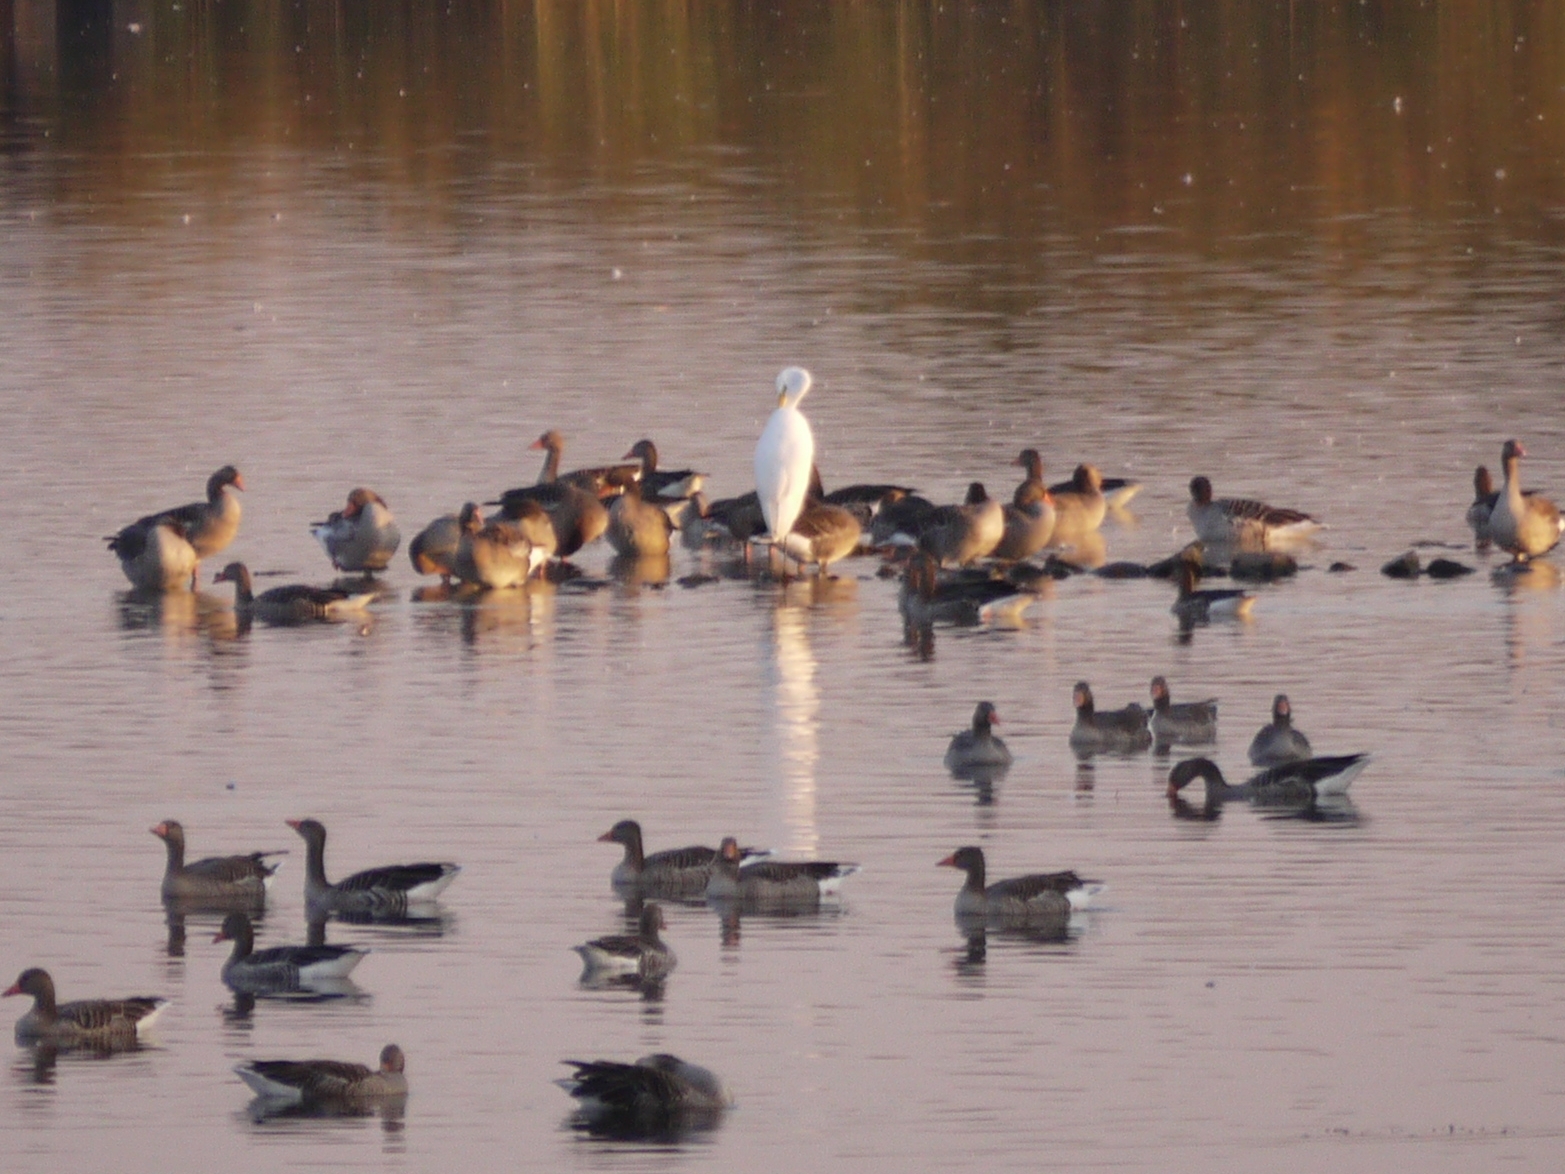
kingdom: Animalia
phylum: Chordata
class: Aves
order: Pelecaniformes
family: Ardeidae
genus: Ardea
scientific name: Ardea alba
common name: Great egret
